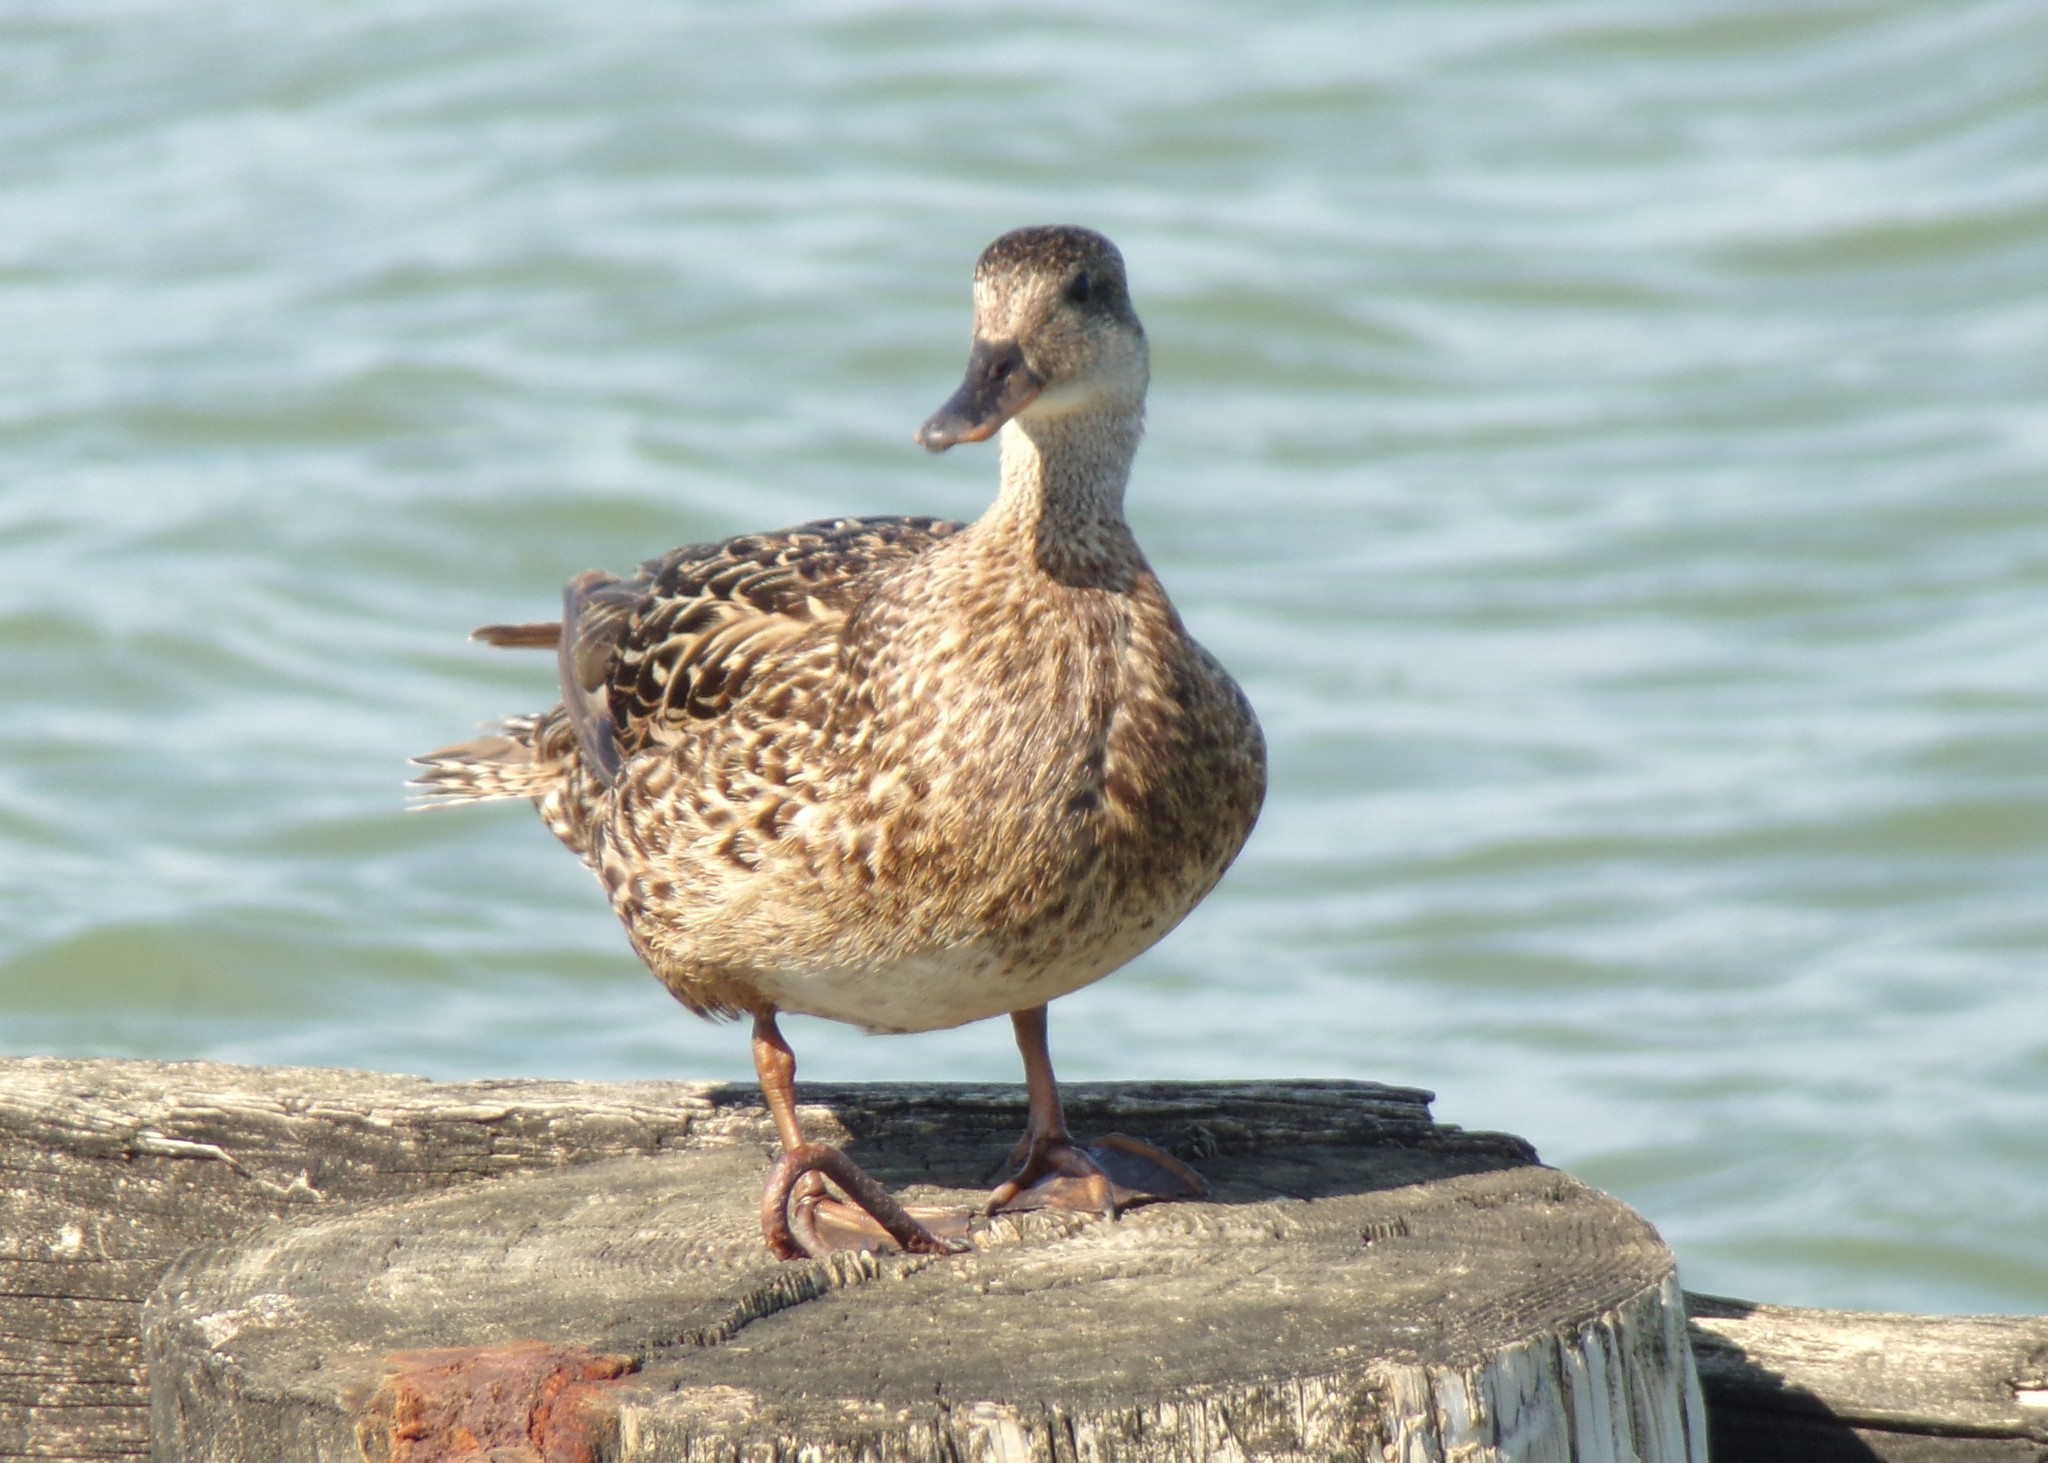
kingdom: Animalia
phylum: Chordata
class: Aves
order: Anseriformes
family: Anatidae
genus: Anas
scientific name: Anas platyrhynchos
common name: Mallard
